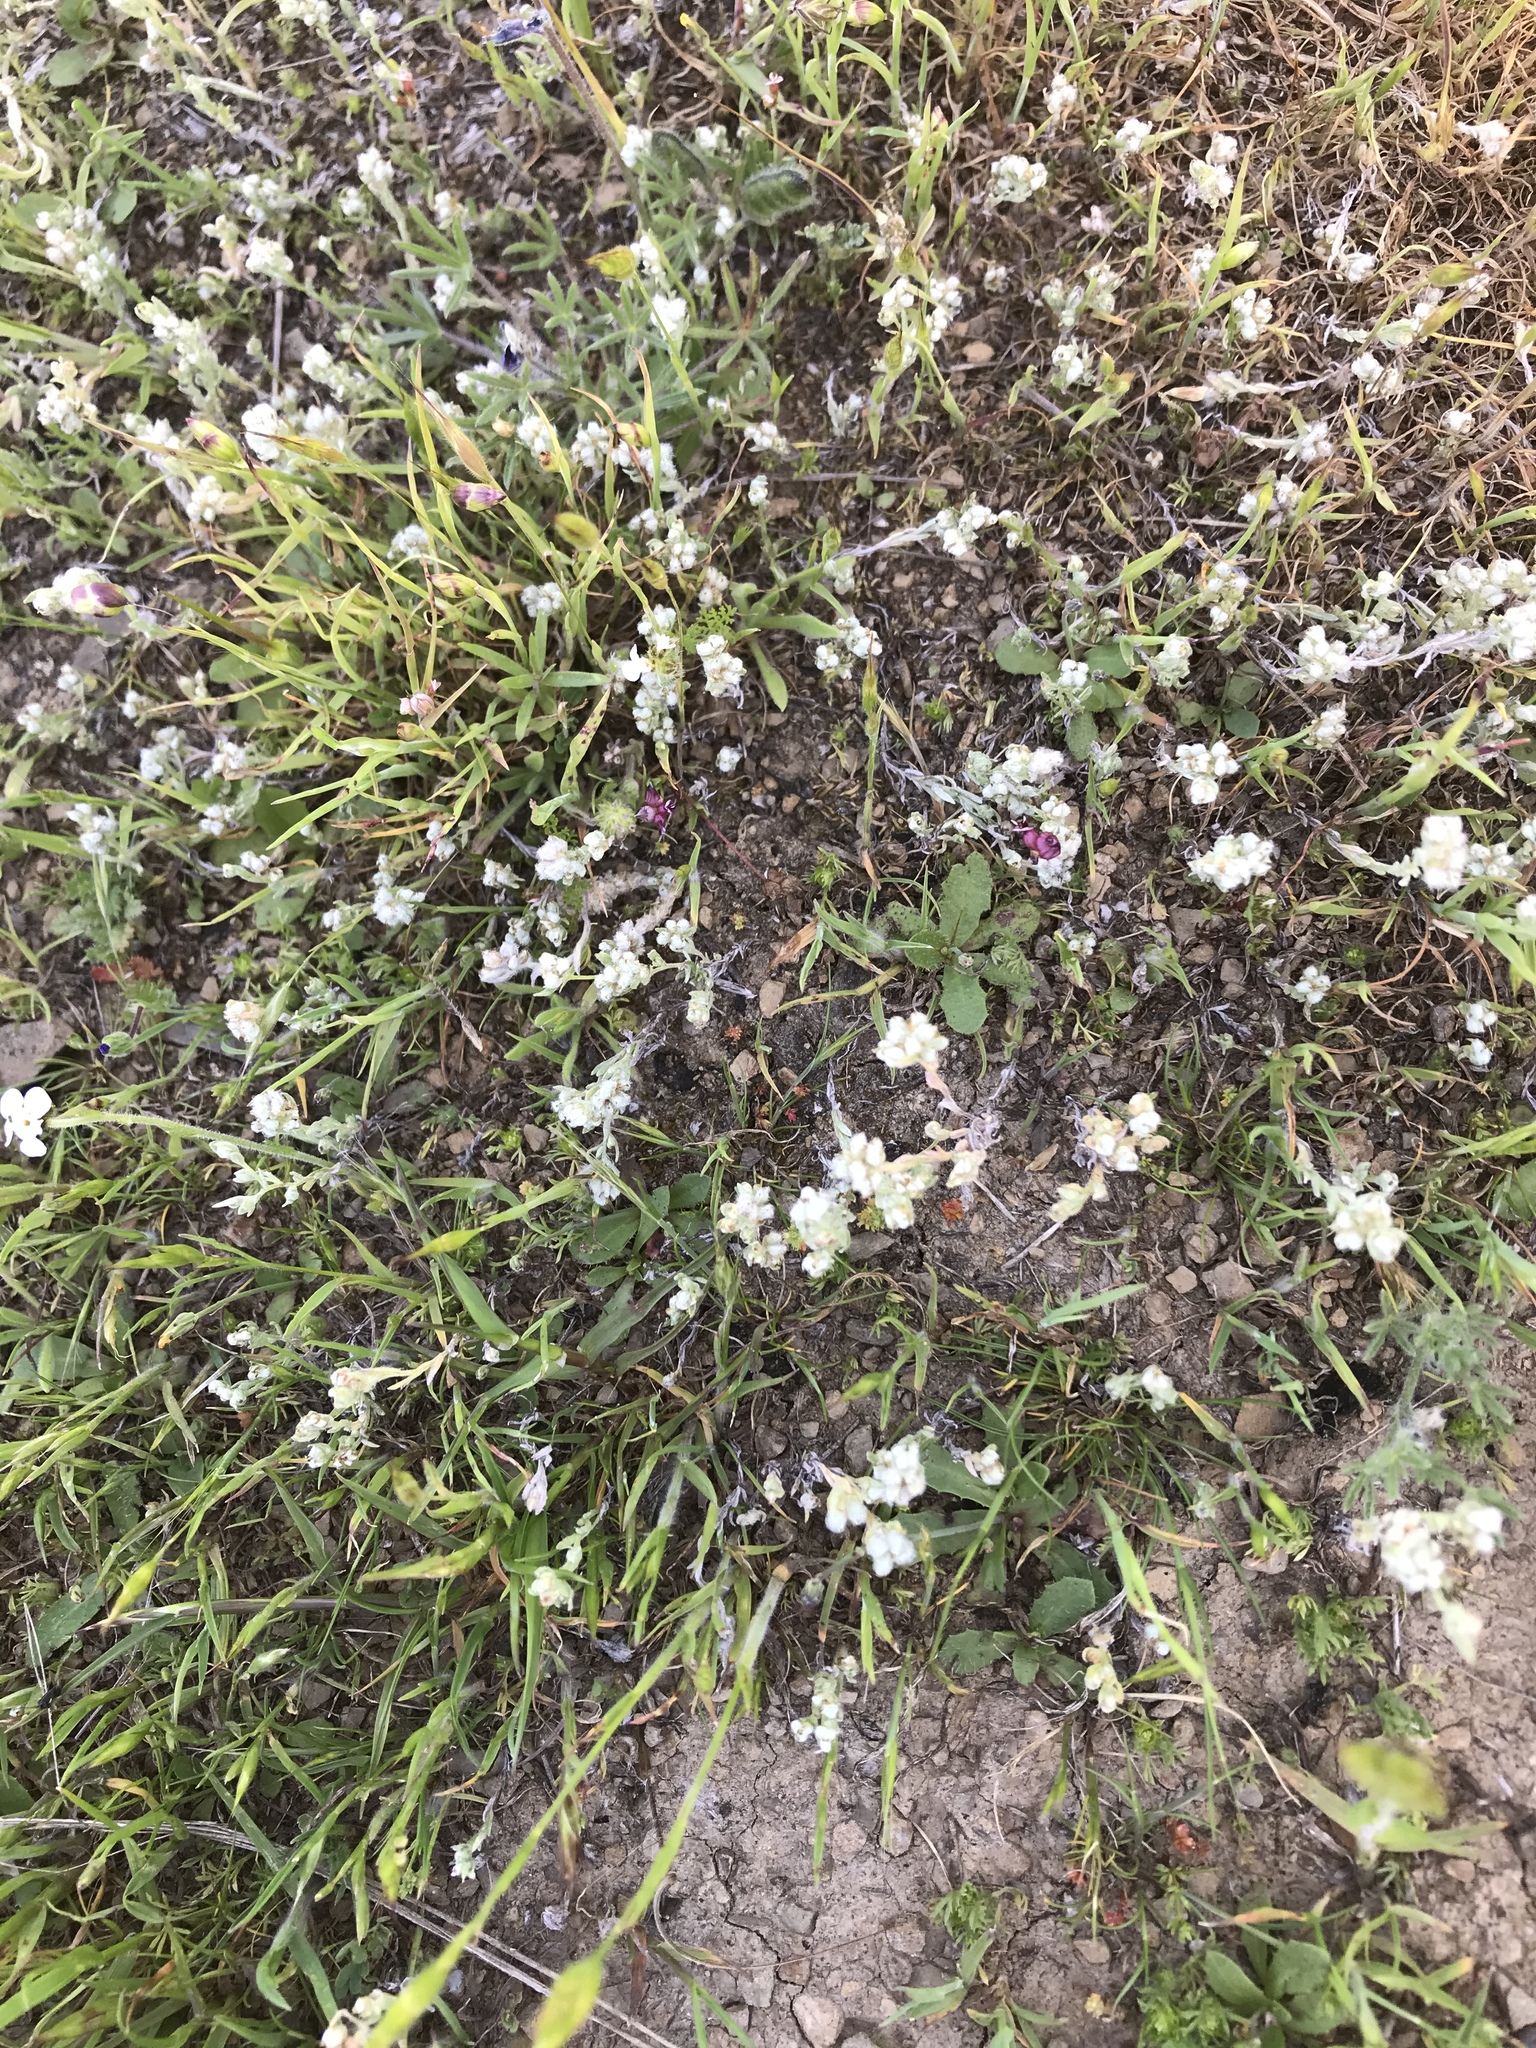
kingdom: Plantae
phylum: Tracheophyta
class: Magnoliopsida
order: Asterales
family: Asteraceae
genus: Bombycilaena
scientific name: Bombycilaena californica
